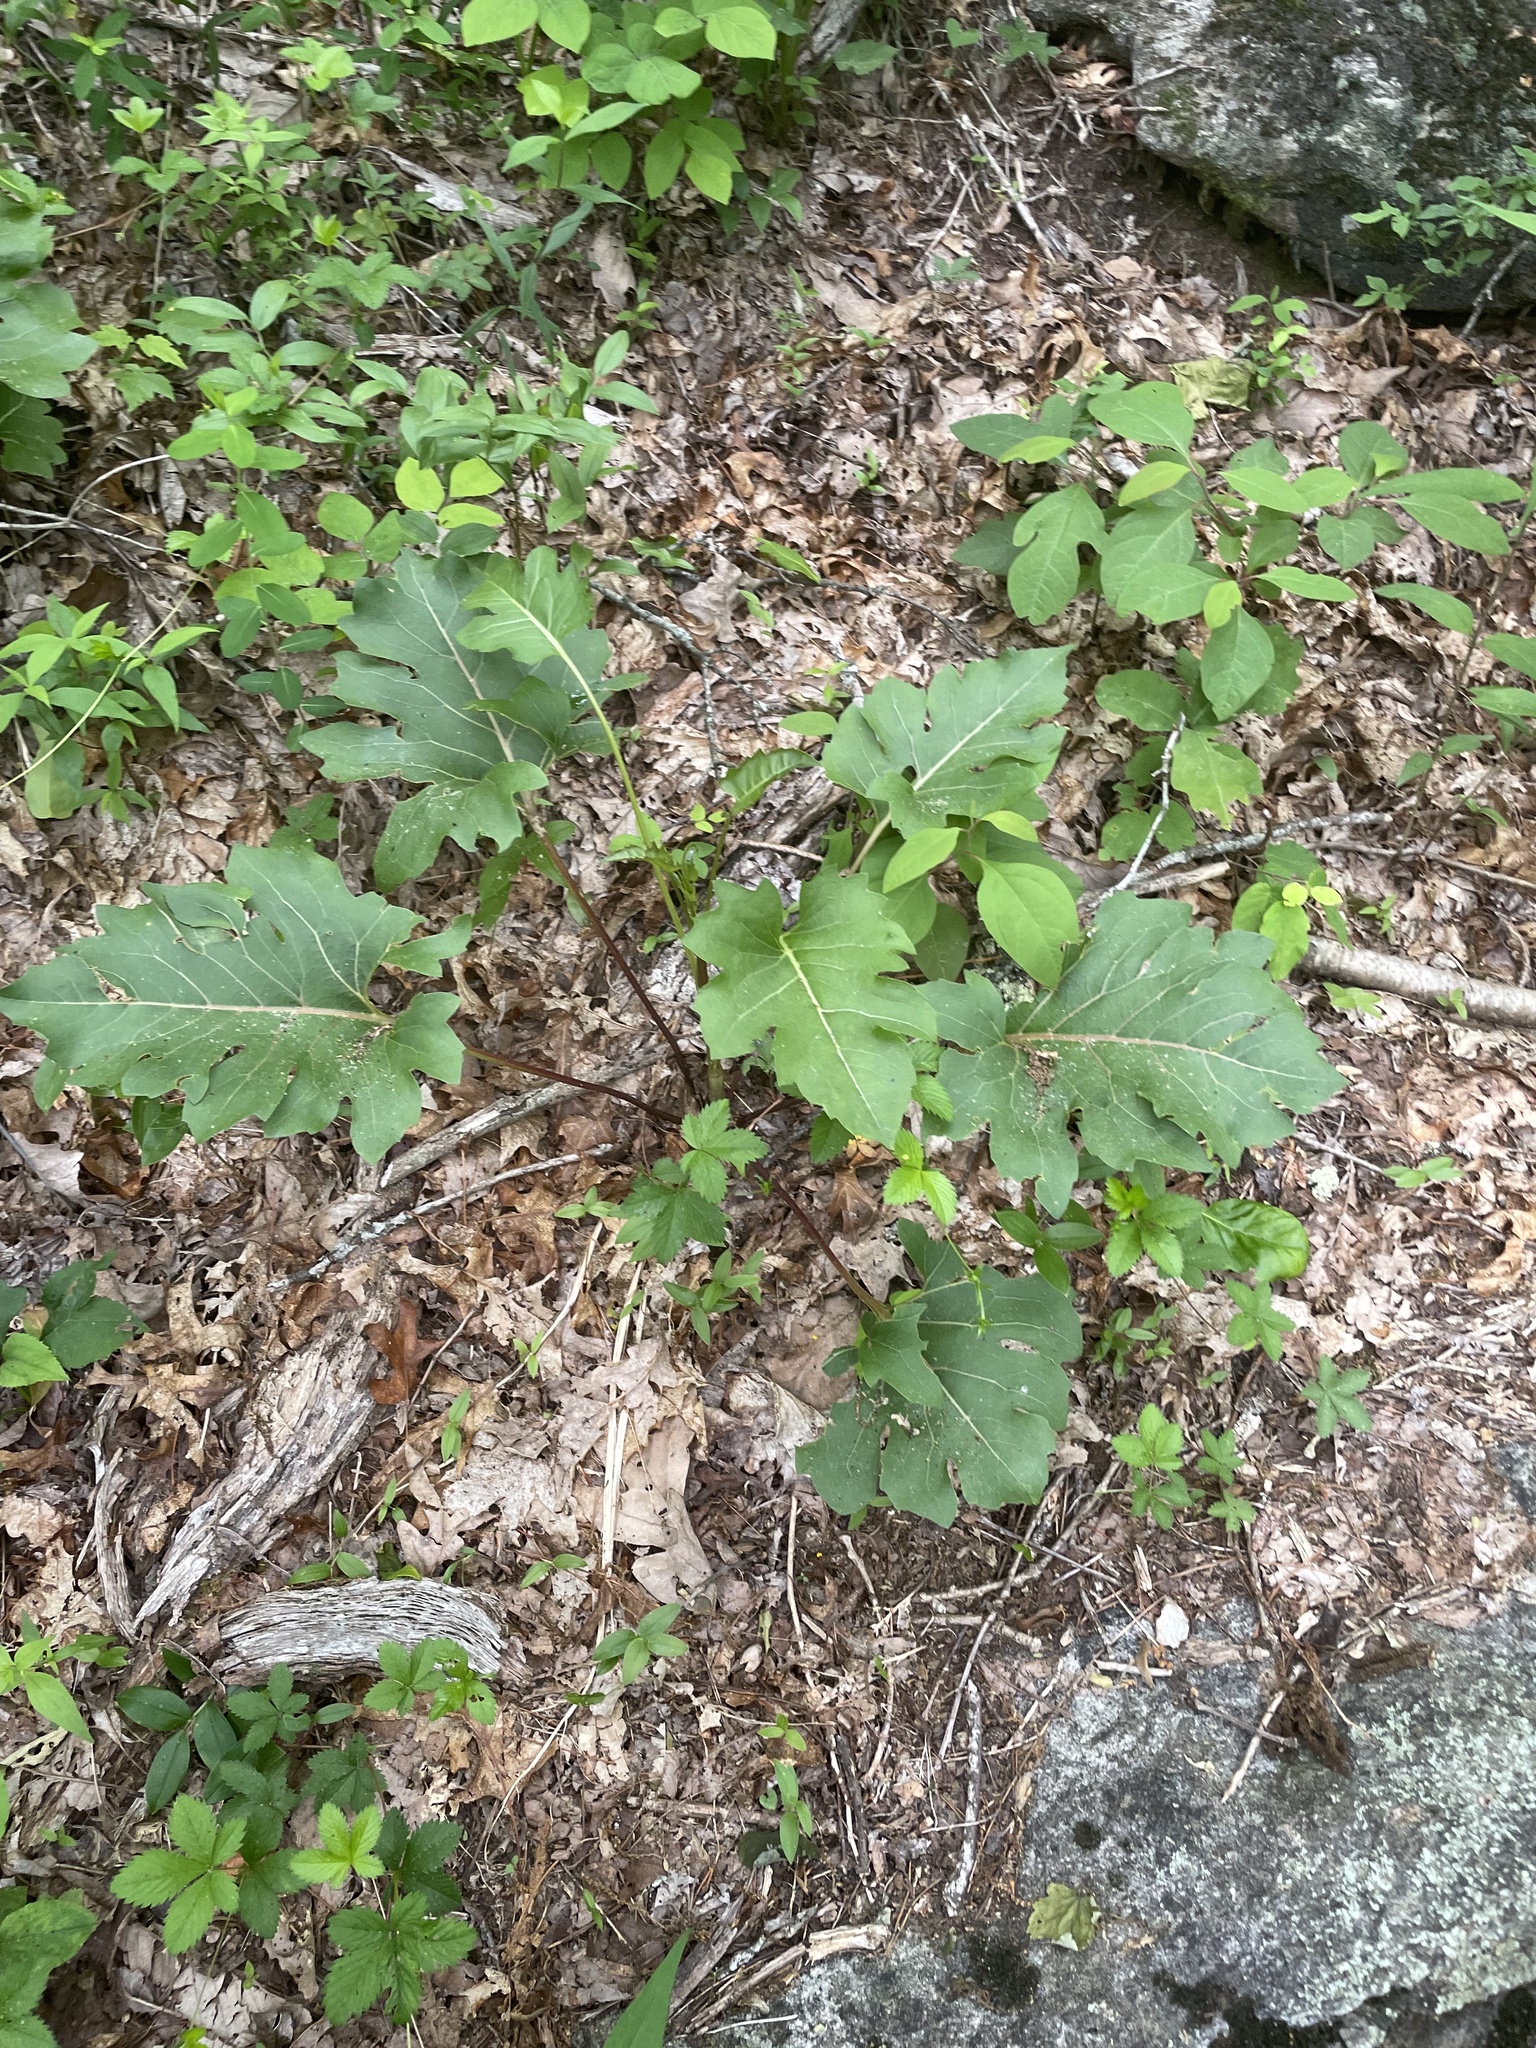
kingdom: Plantae
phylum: Tracheophyta
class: Magnoliopsida
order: Asterales
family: Asteraceae
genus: Silphium
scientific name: Silphium compositum
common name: Lesser basal-leaf rosinweed
